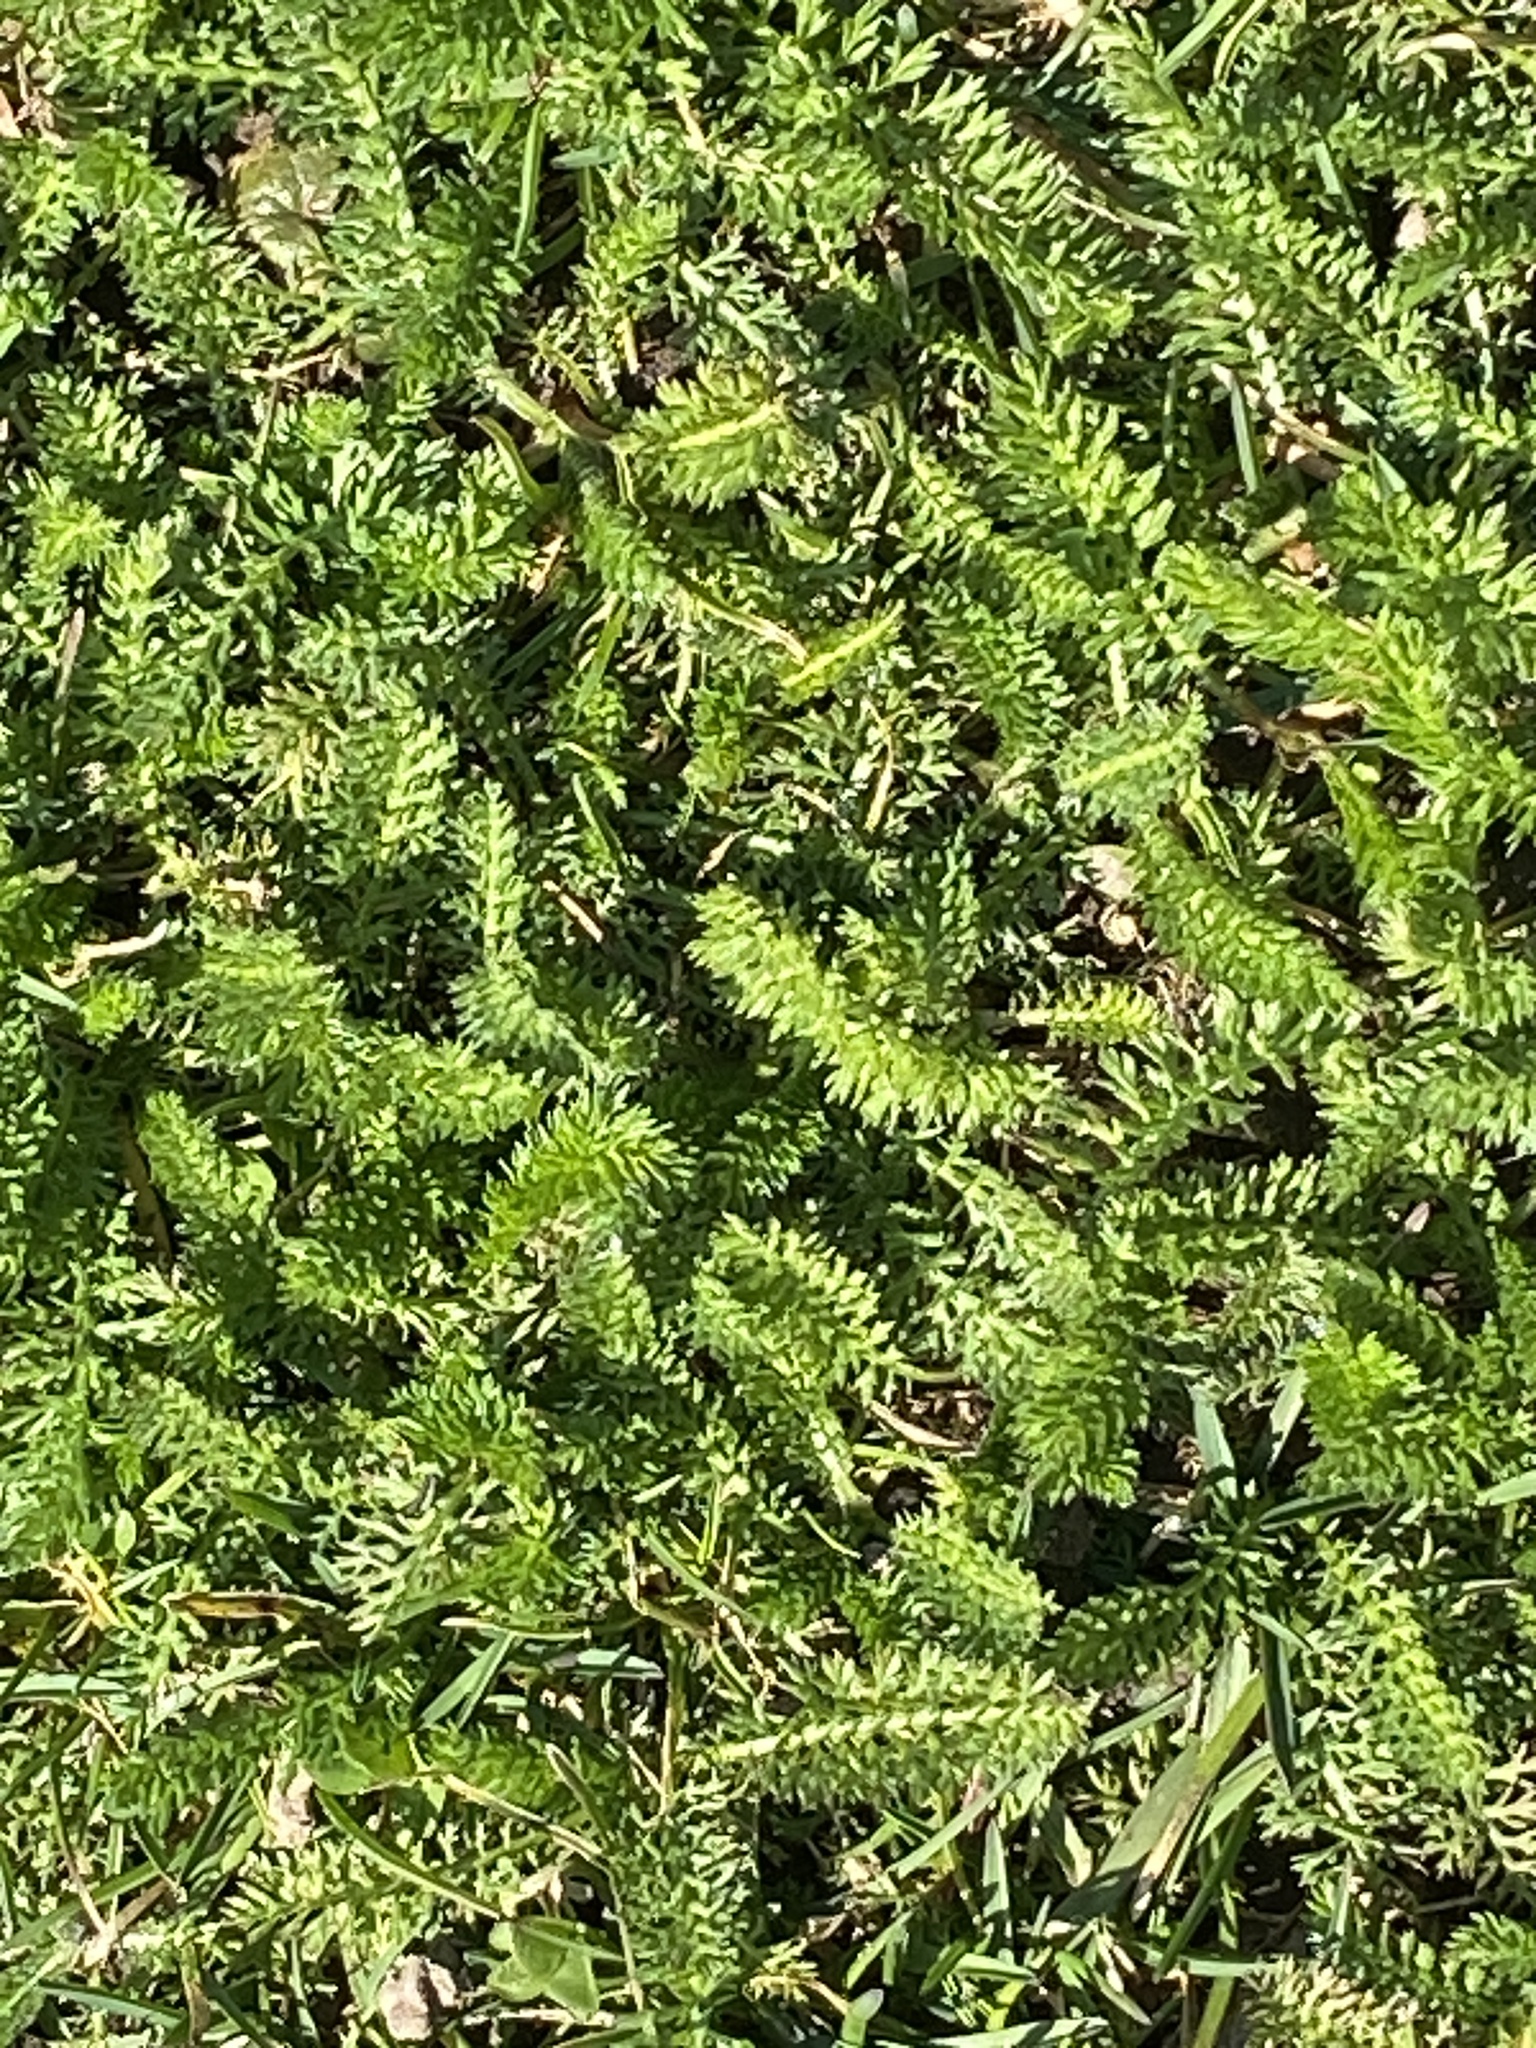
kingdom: Plantae
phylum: Tracheophyta
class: Magnoliopsida
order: Asterales
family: Asteraceae
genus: Achillea
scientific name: Achillea millefolium
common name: Yarrow
